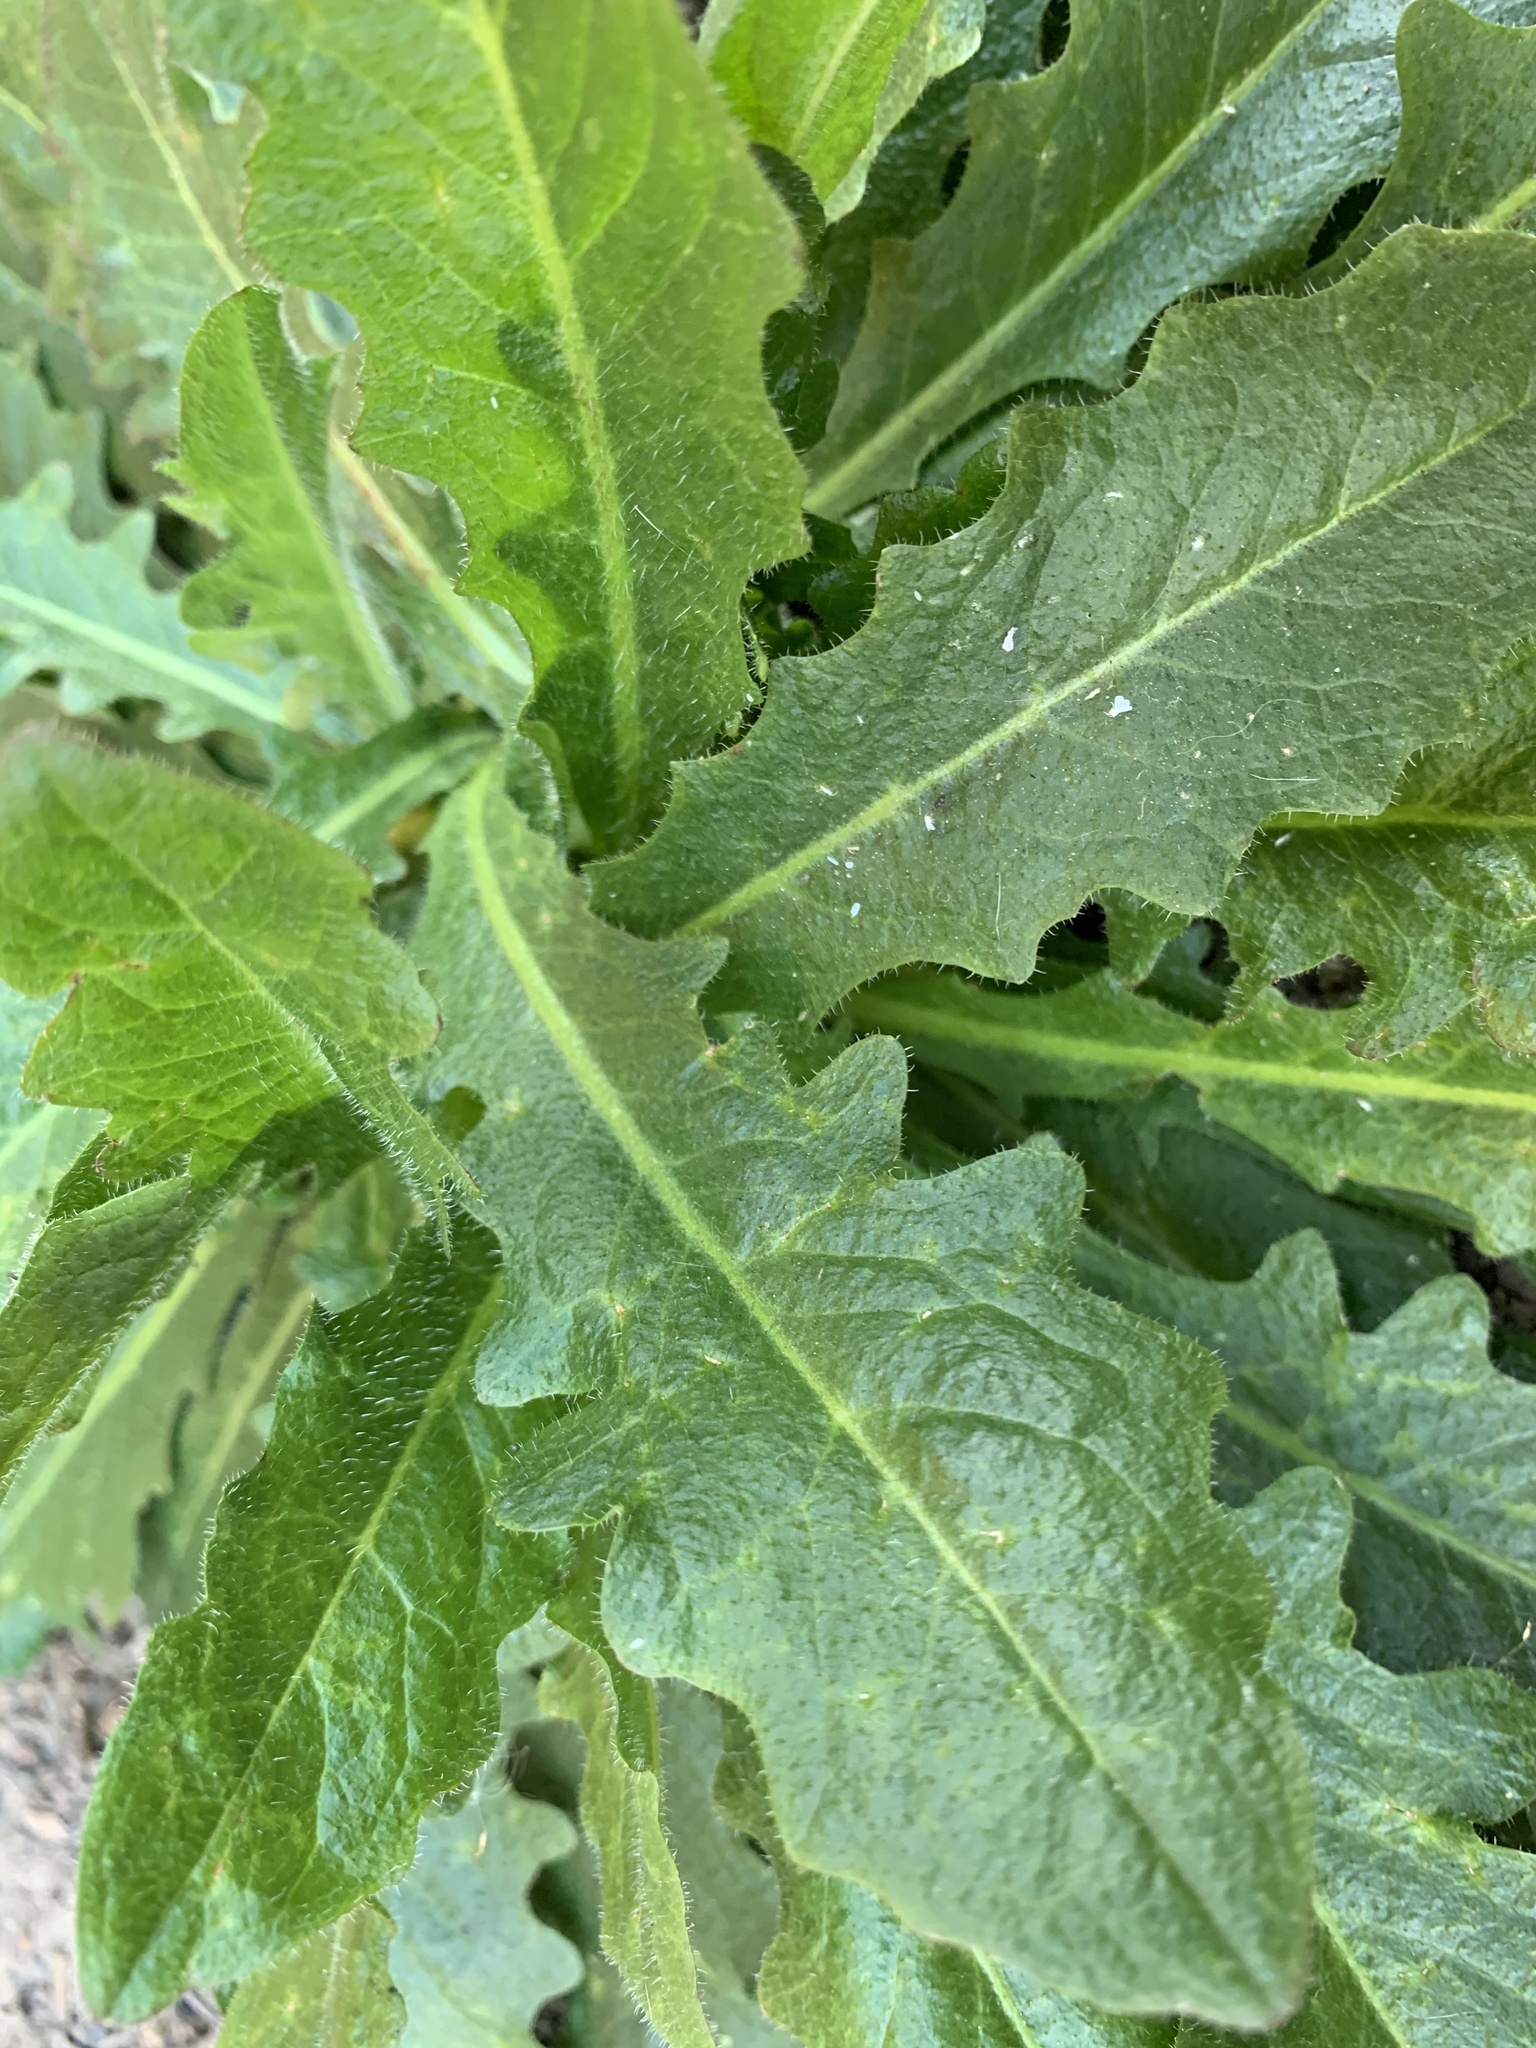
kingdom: Plantae
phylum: Tracheophyta
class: Magnoliopsida
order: Asterales
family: Asteraceae
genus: Hypochaeris
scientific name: Hypochaeris radicata
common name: Flatweed
